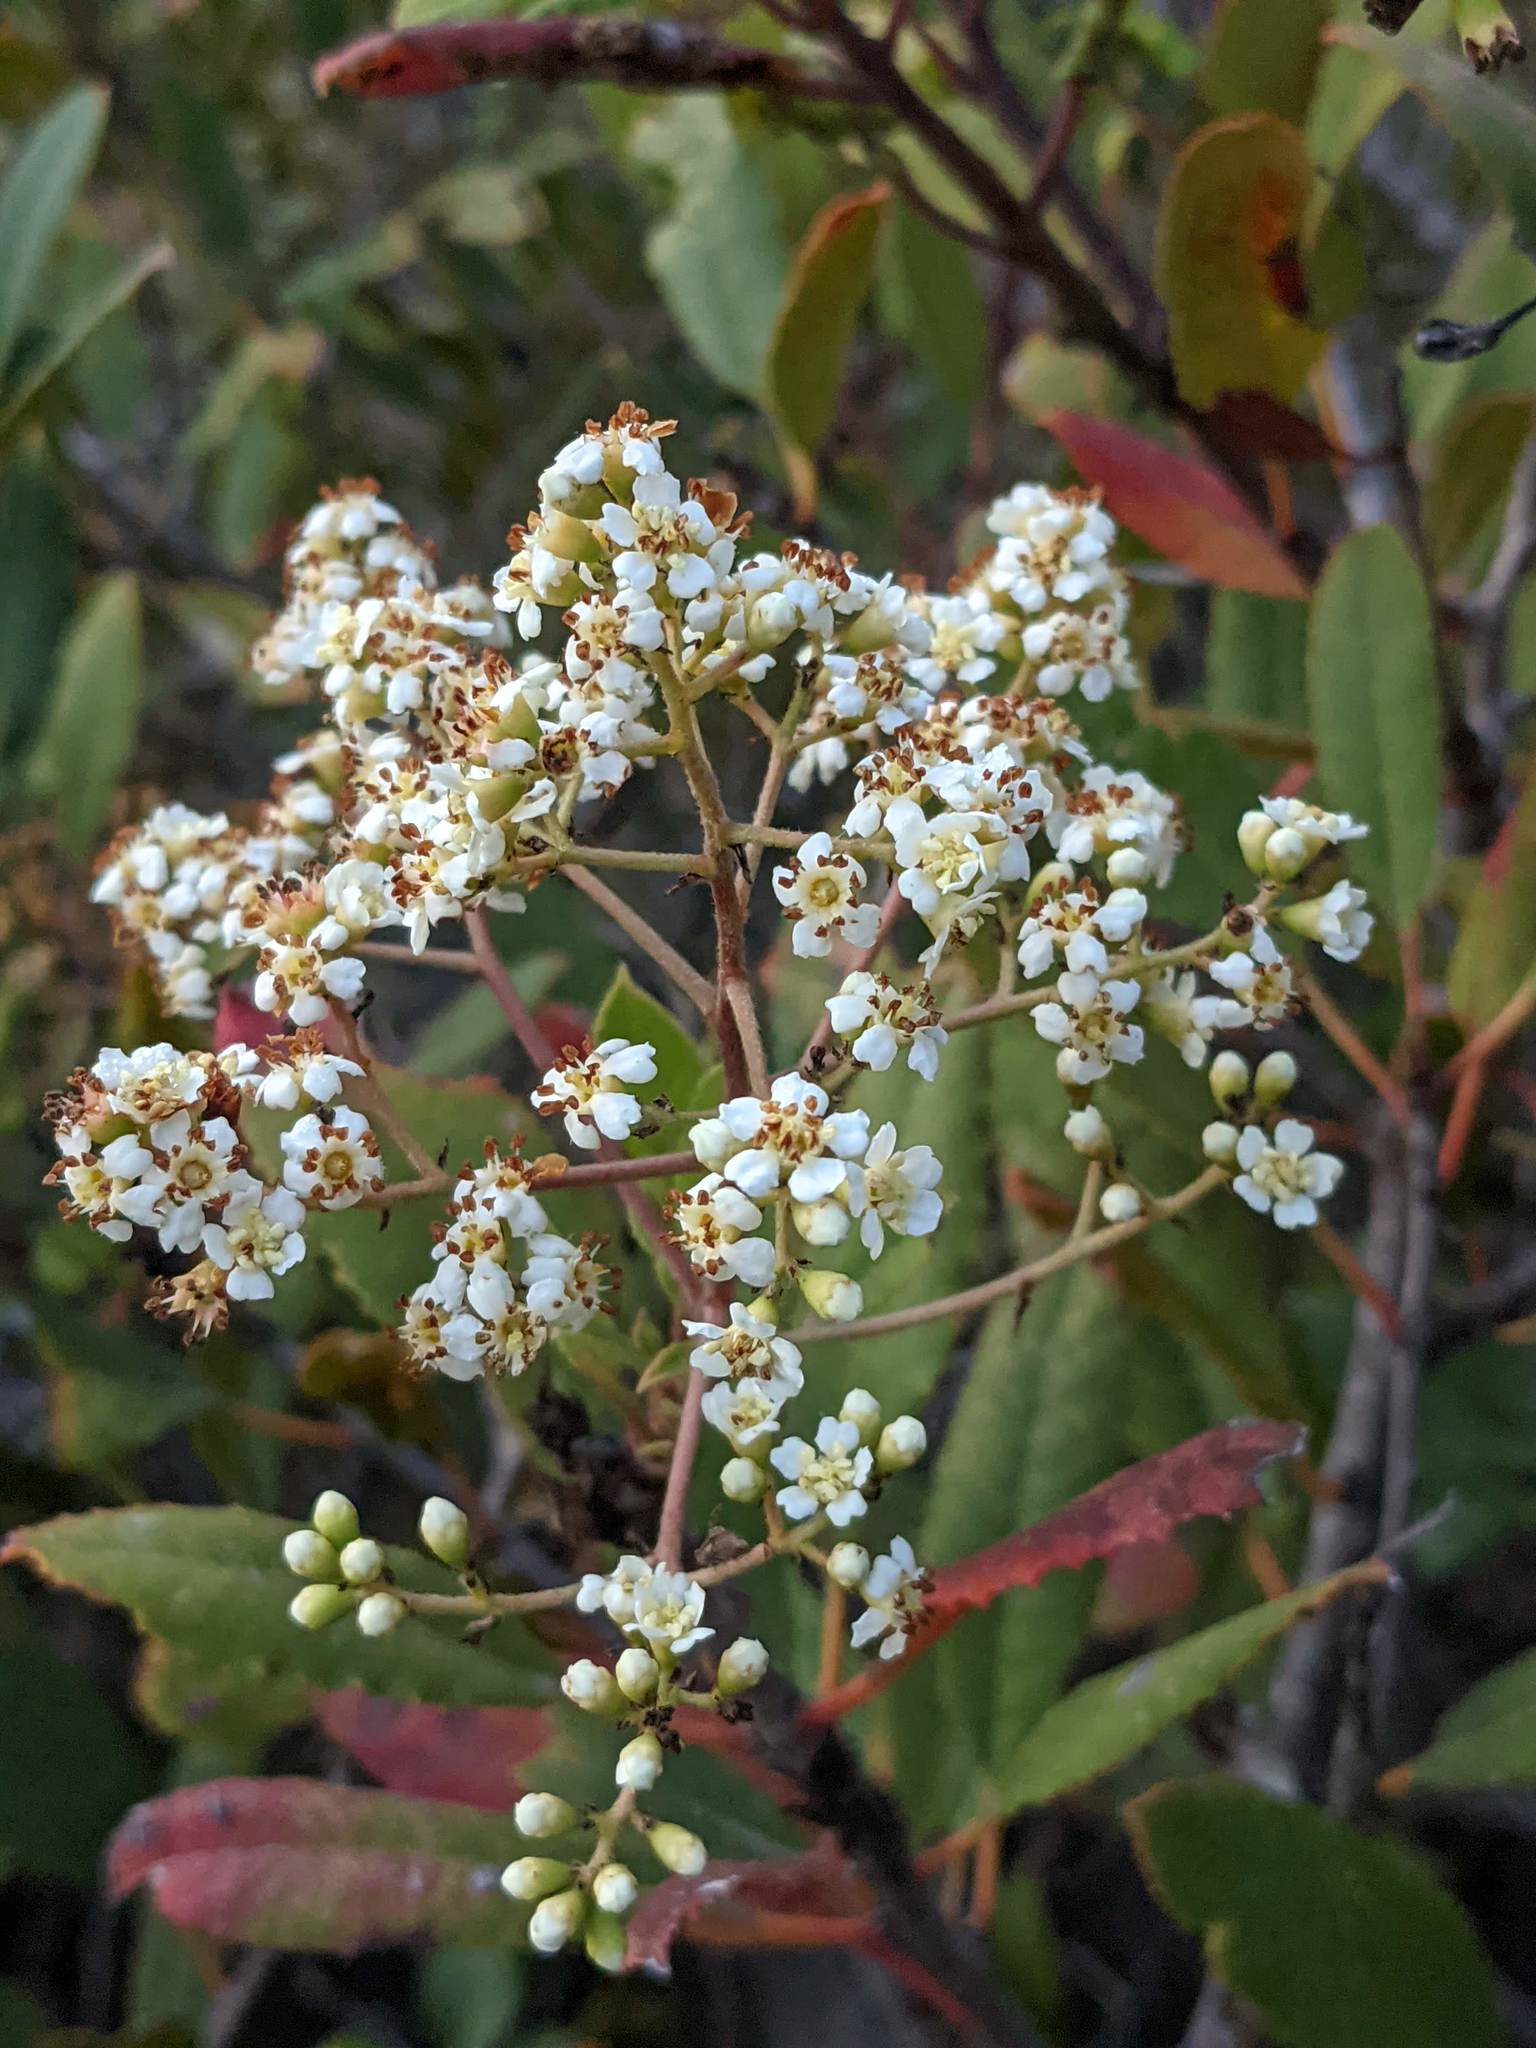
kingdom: Plantae
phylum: Tracheophyta
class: Magnoliopsida
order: Rosales
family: Rosaceae
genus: Heteromeles
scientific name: Heteromeles arbutifolia
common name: California-holly
